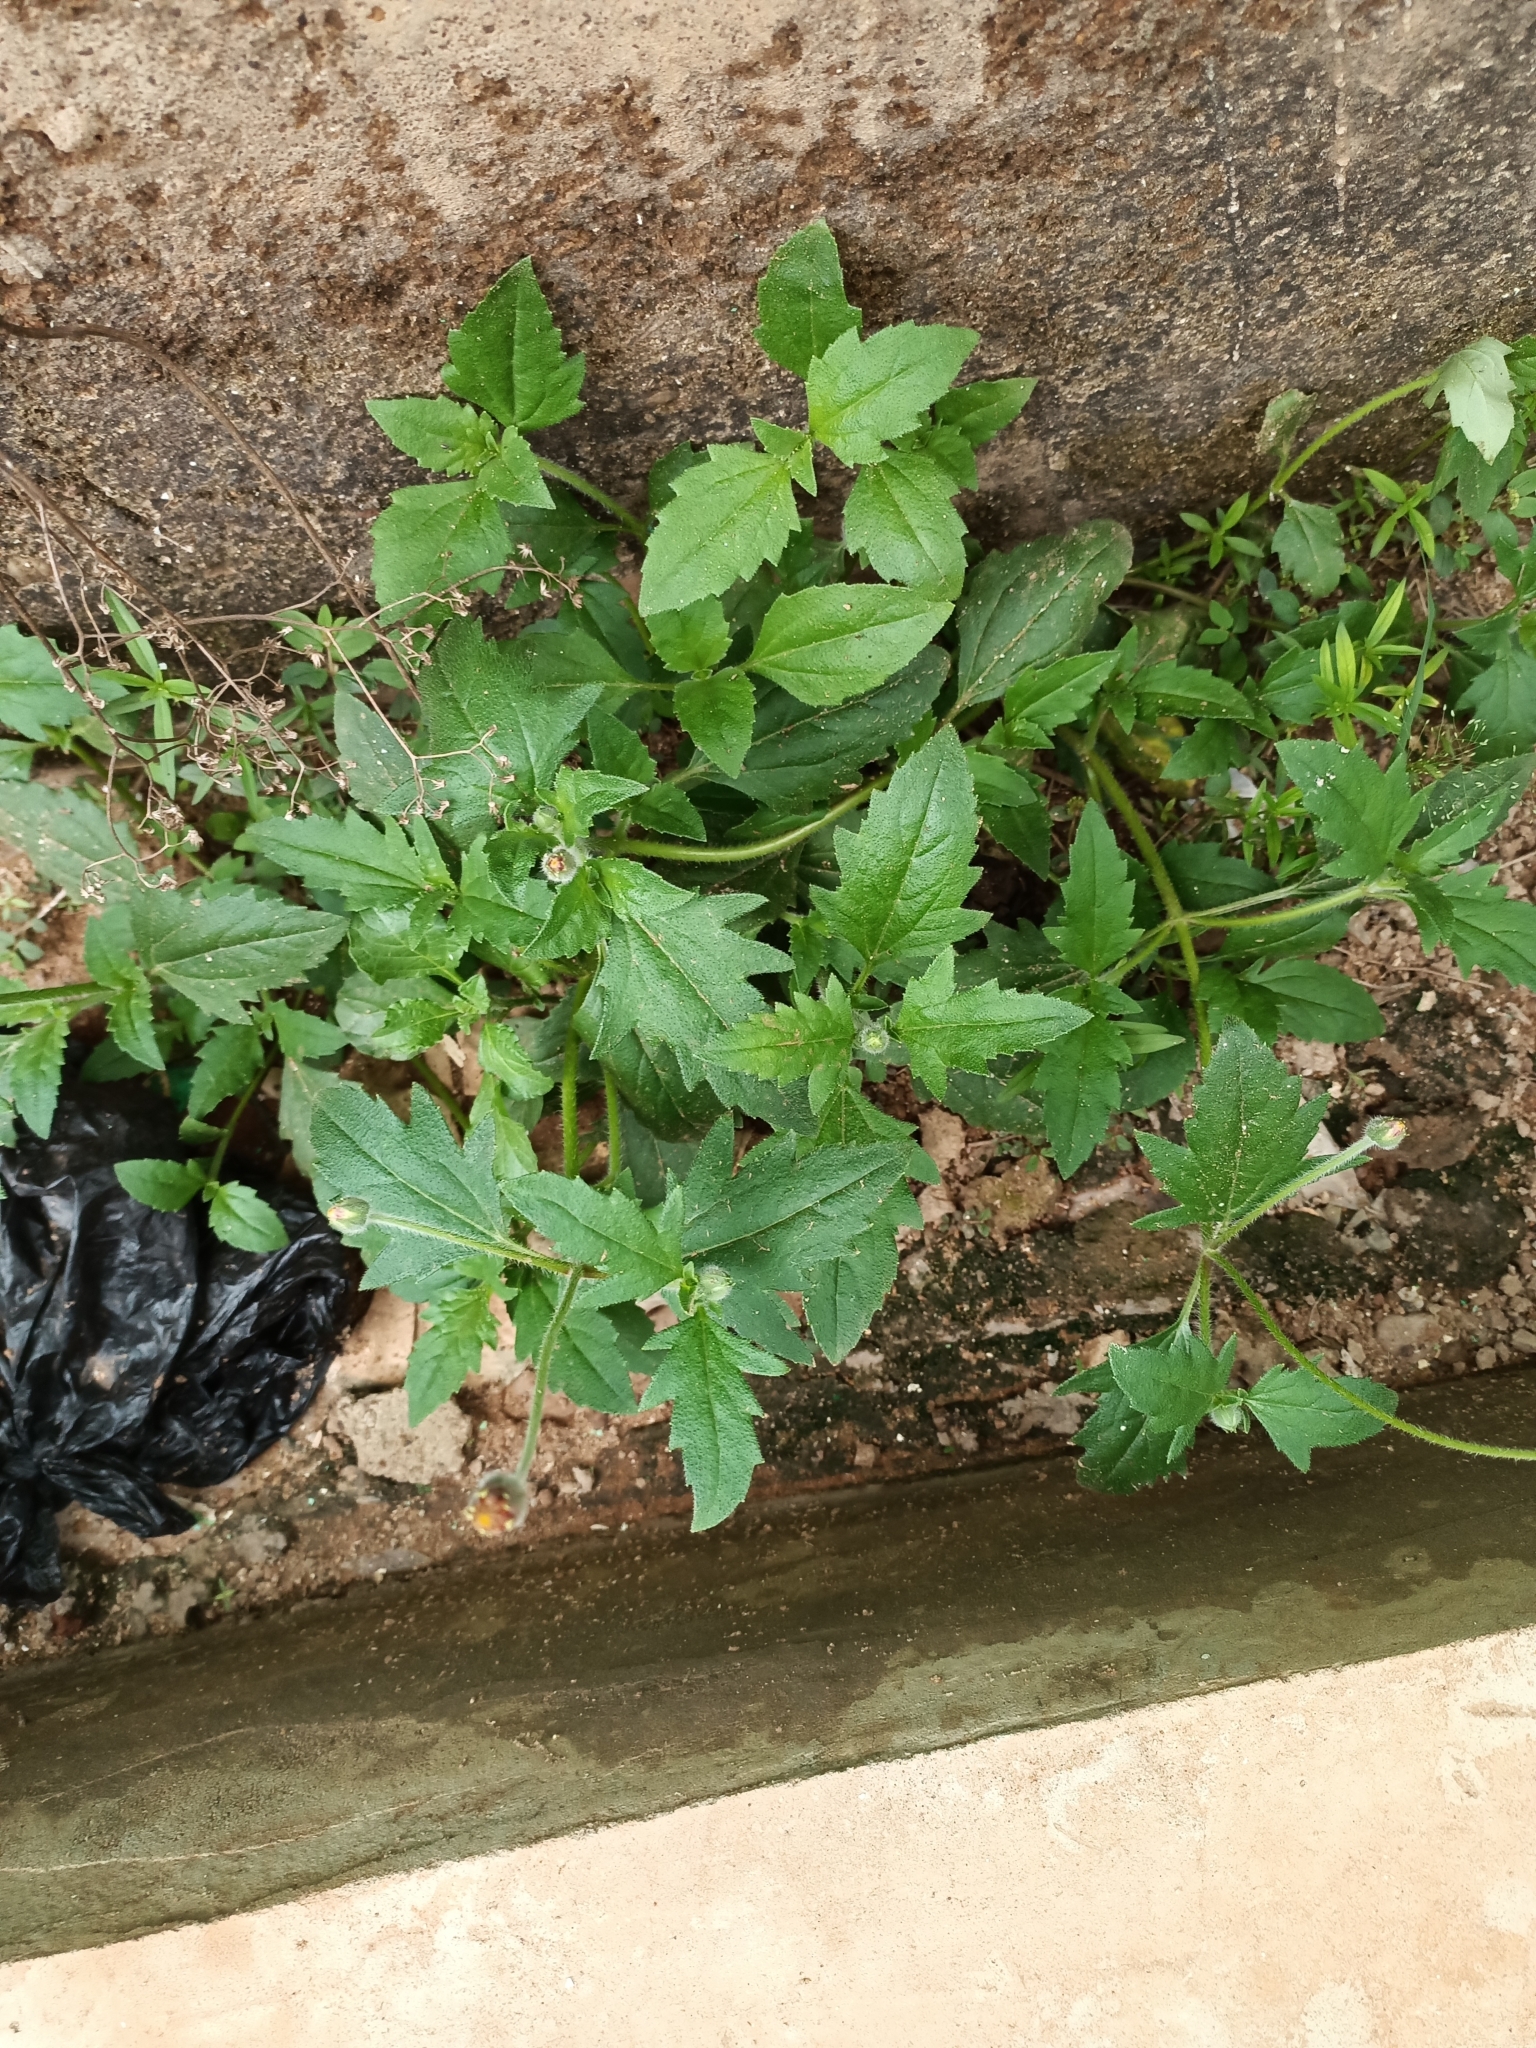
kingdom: Plantae
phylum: Tracheophyta
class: Magnoliopsida
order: Asterales
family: Asteraceae
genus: Tridax
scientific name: Tridax procumbens
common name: Coatbuttons
